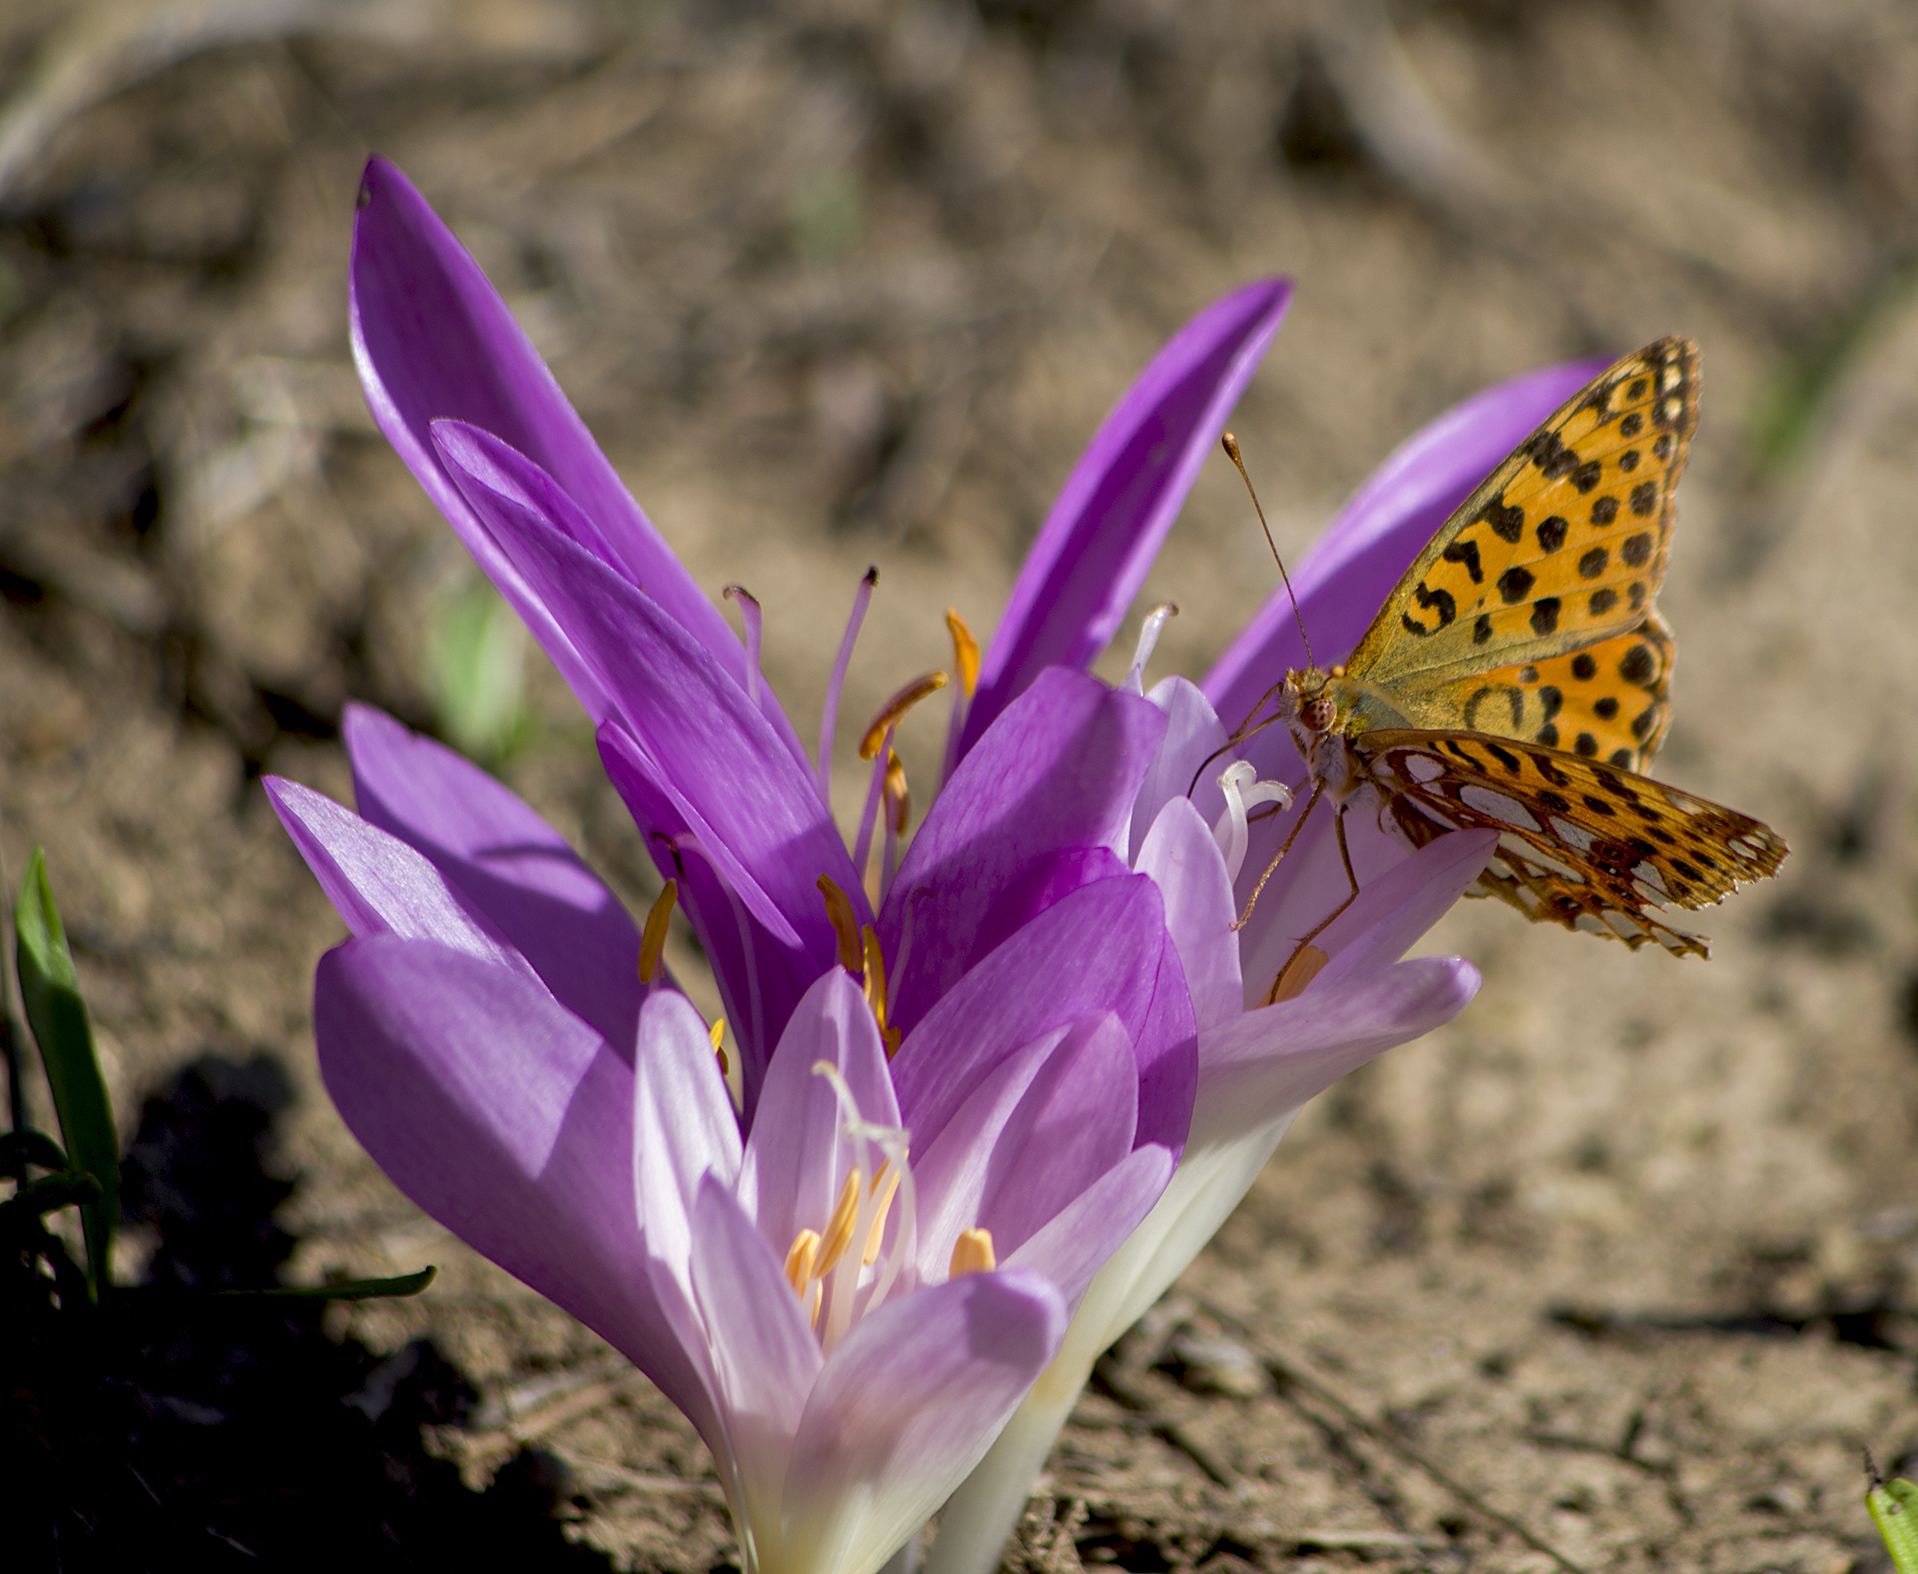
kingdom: Animalia
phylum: Arthropoda
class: Insecta
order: Lepidoptera
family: Nymphalidae
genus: Issoria
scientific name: Issoria lathonia
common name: Queen of spain fritillary
